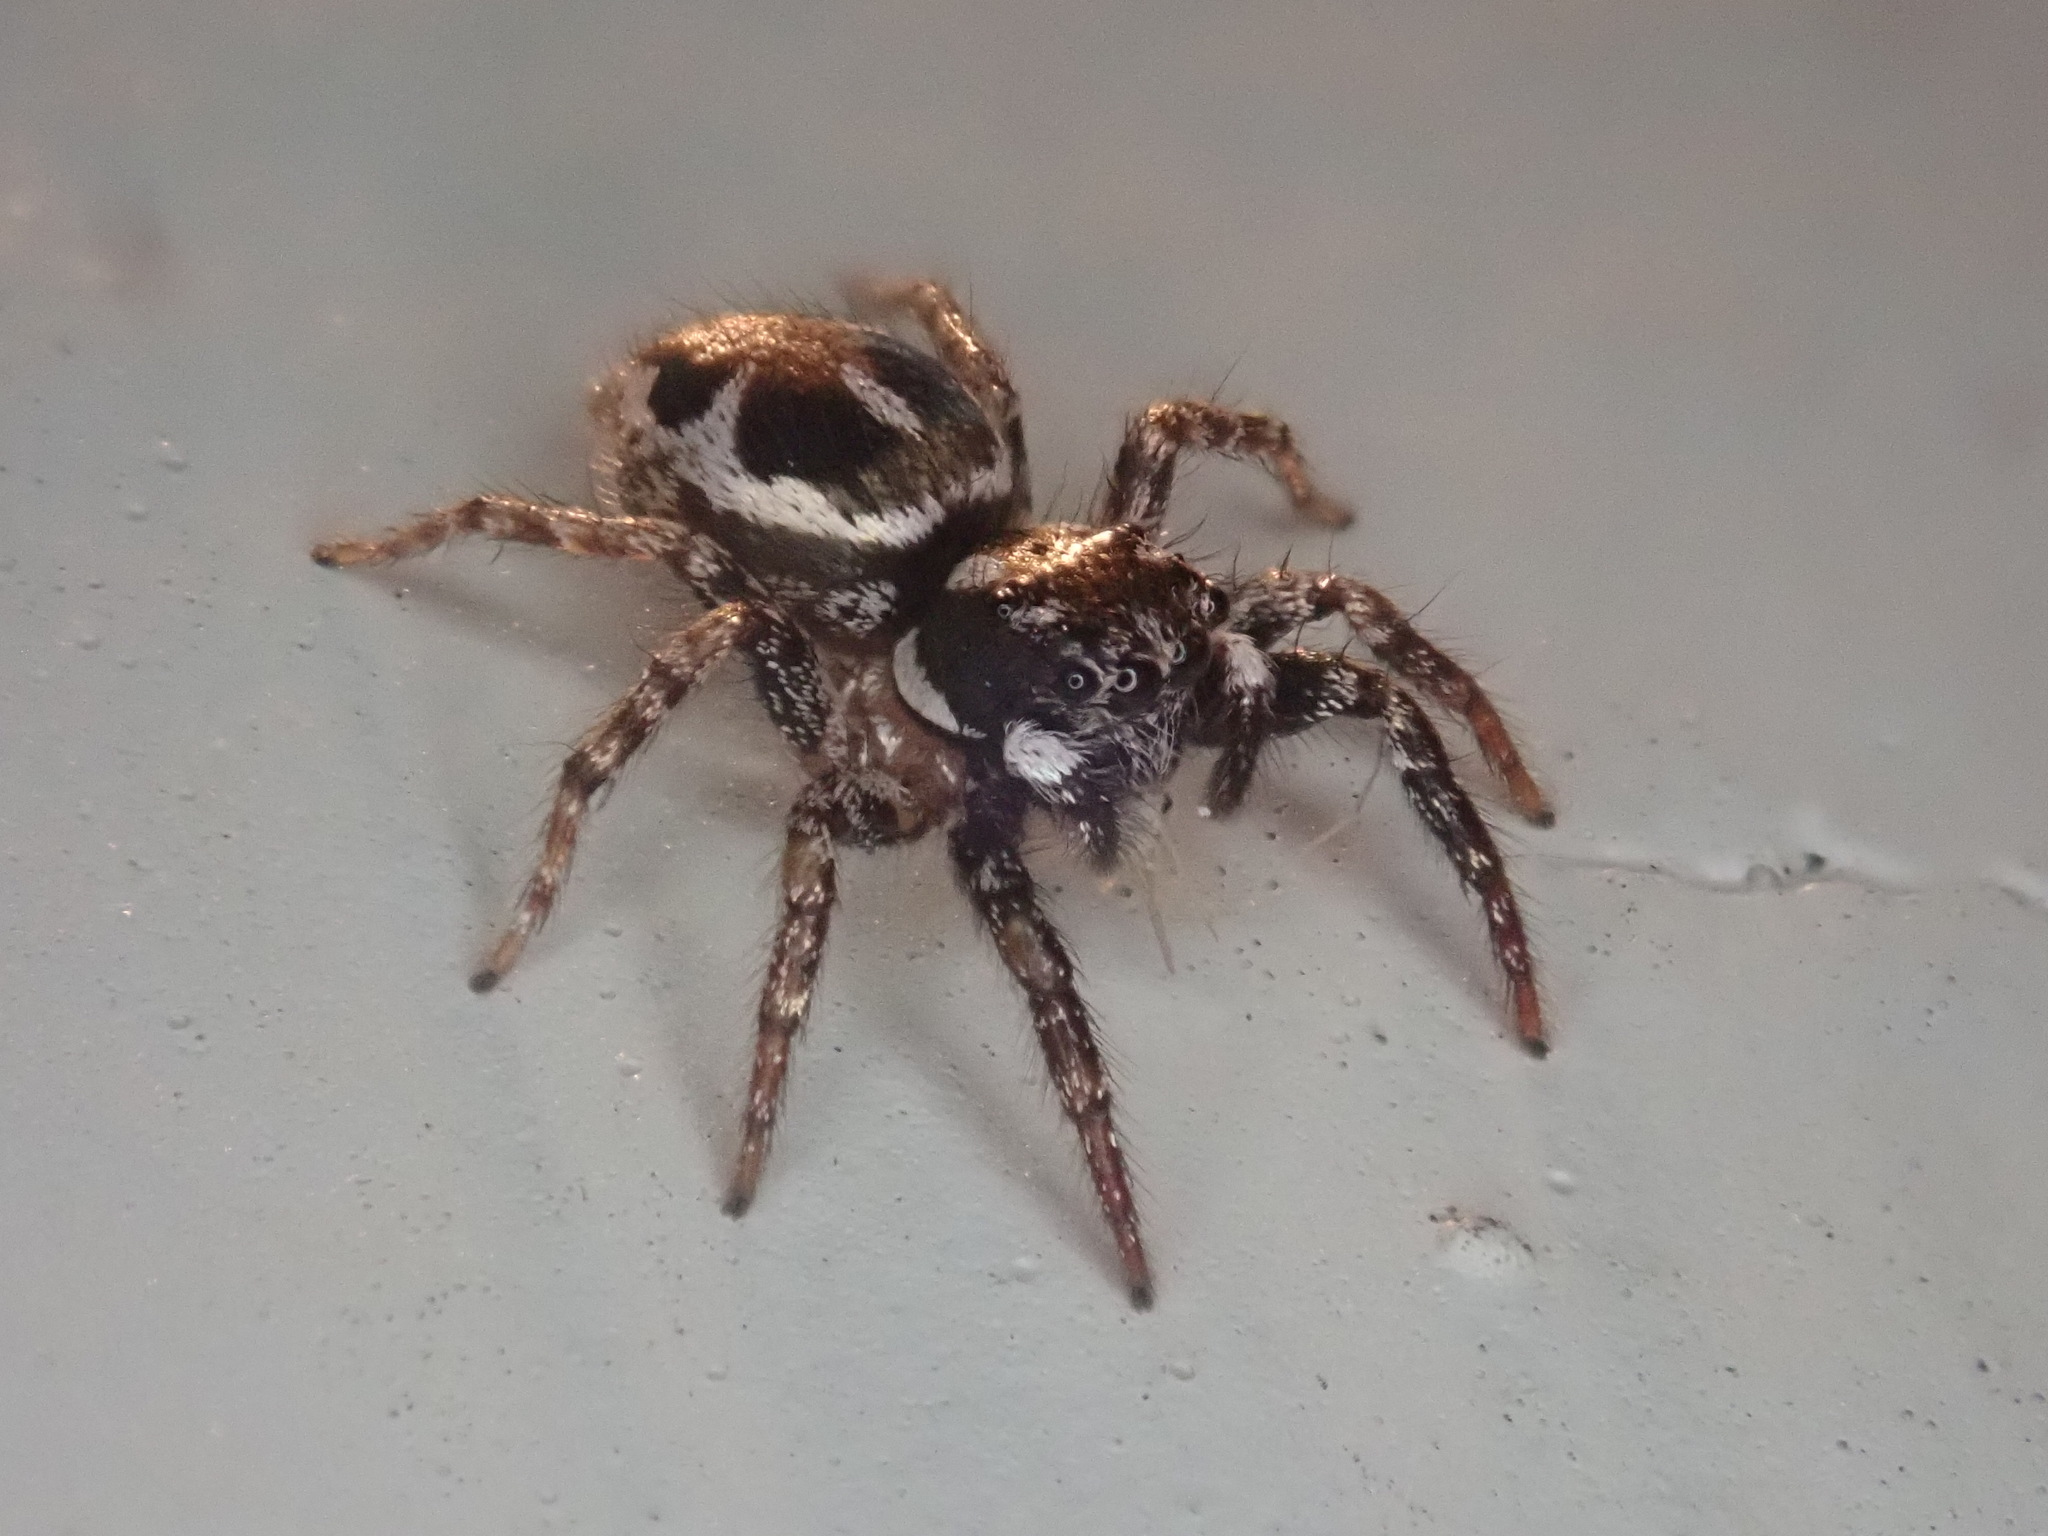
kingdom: Animalia
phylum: Arthropoda
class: Arachnida
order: Araneae
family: Salticidae
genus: Anasaitis
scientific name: Anasaitis canosa
